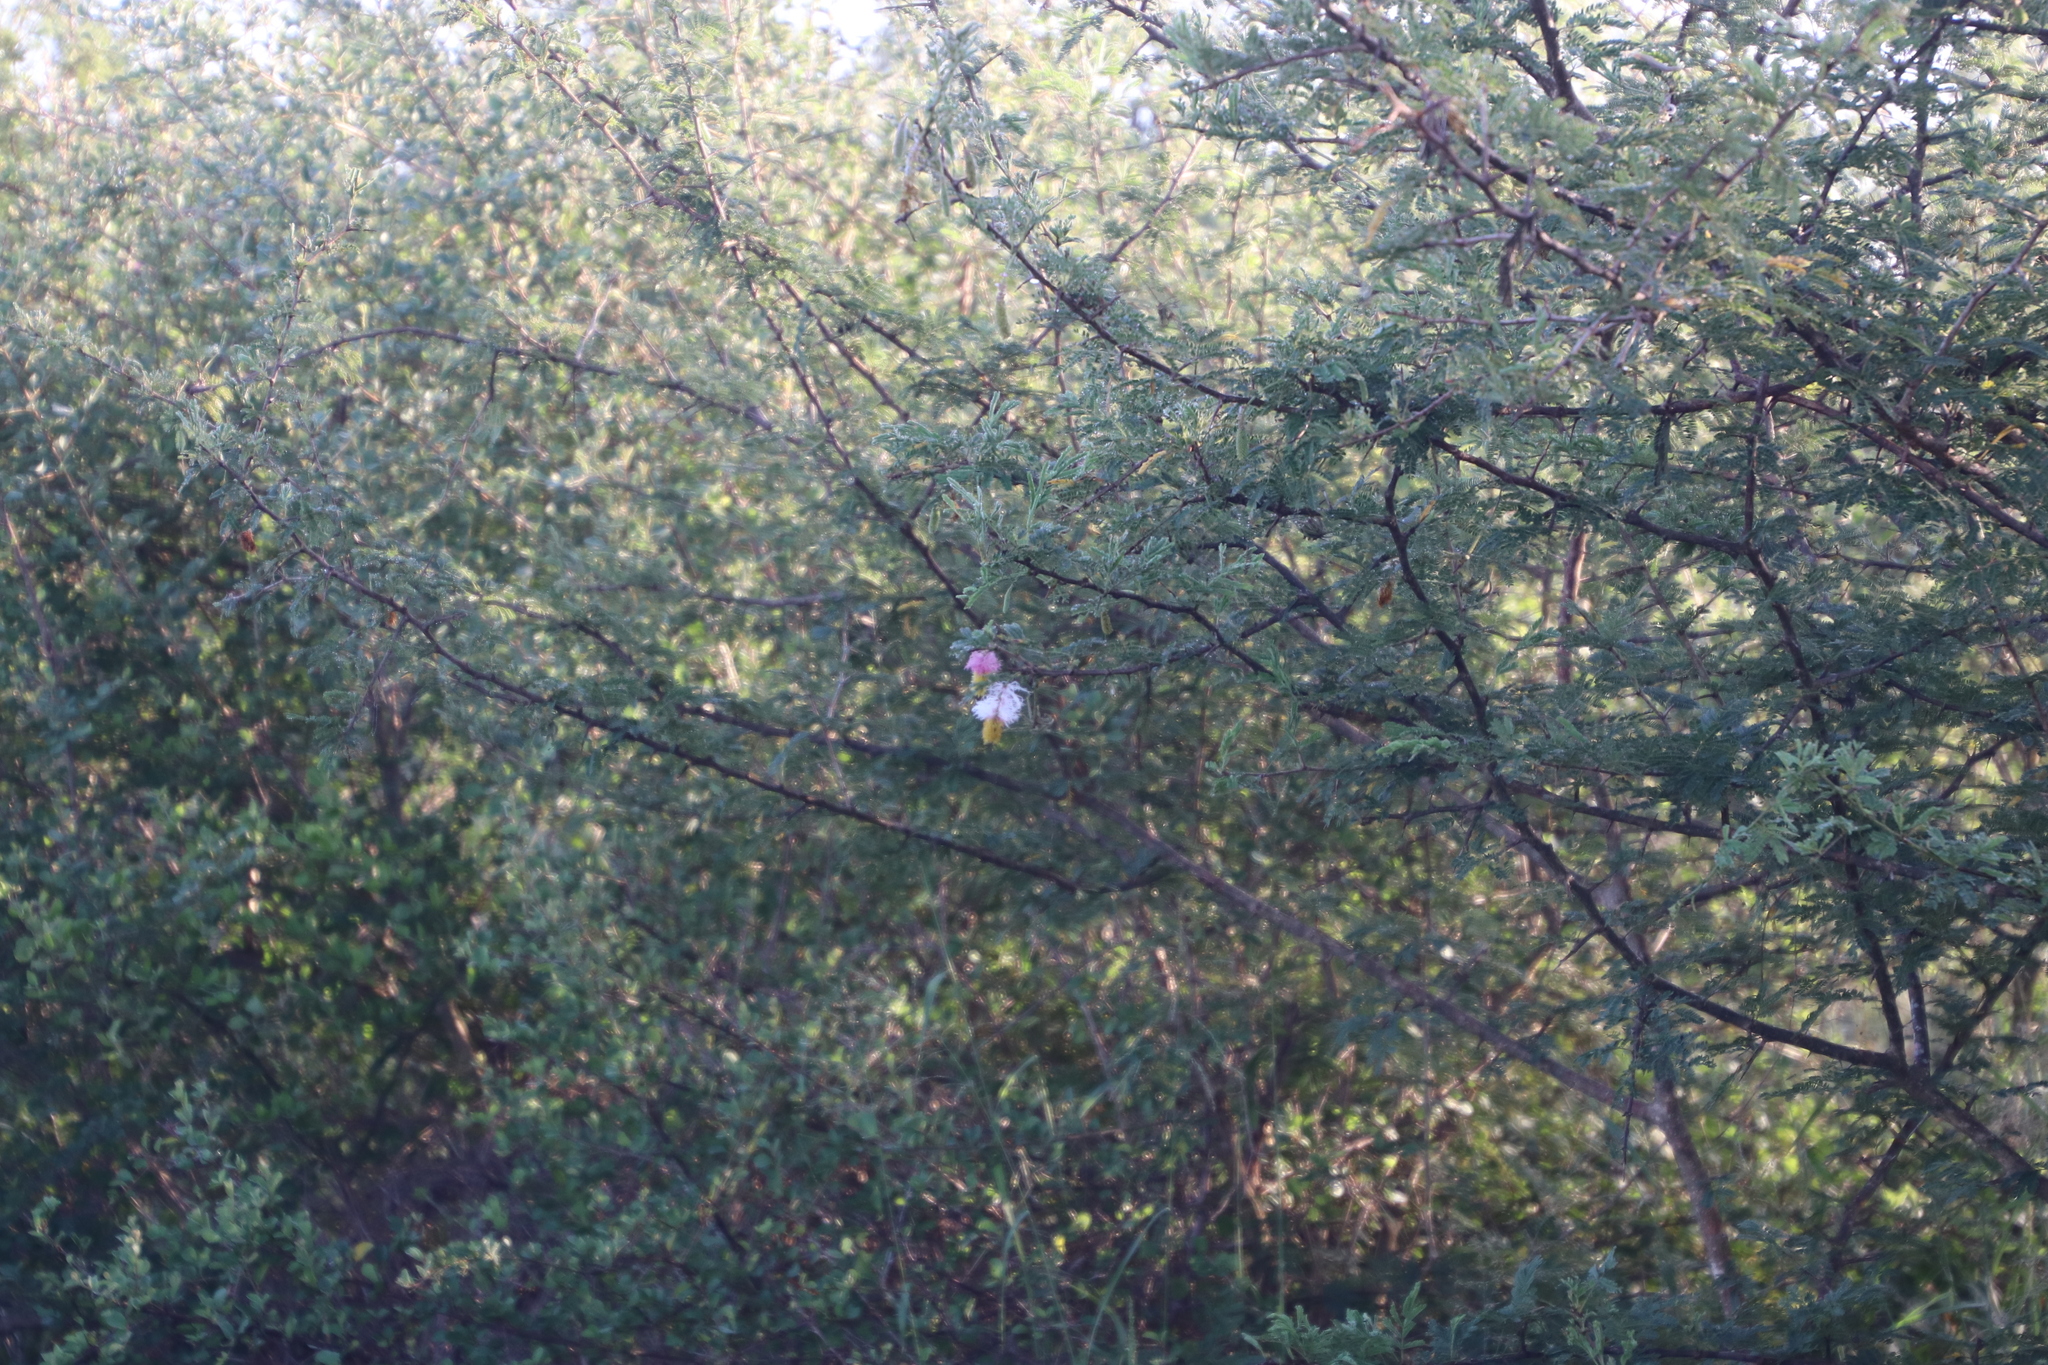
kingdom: Plantae
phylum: Tracheophyta
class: Magnoliopsida
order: Fabales
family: Fabaceae
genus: Dichrostachys
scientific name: Dichrostachys cinerea
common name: Sicklebush
